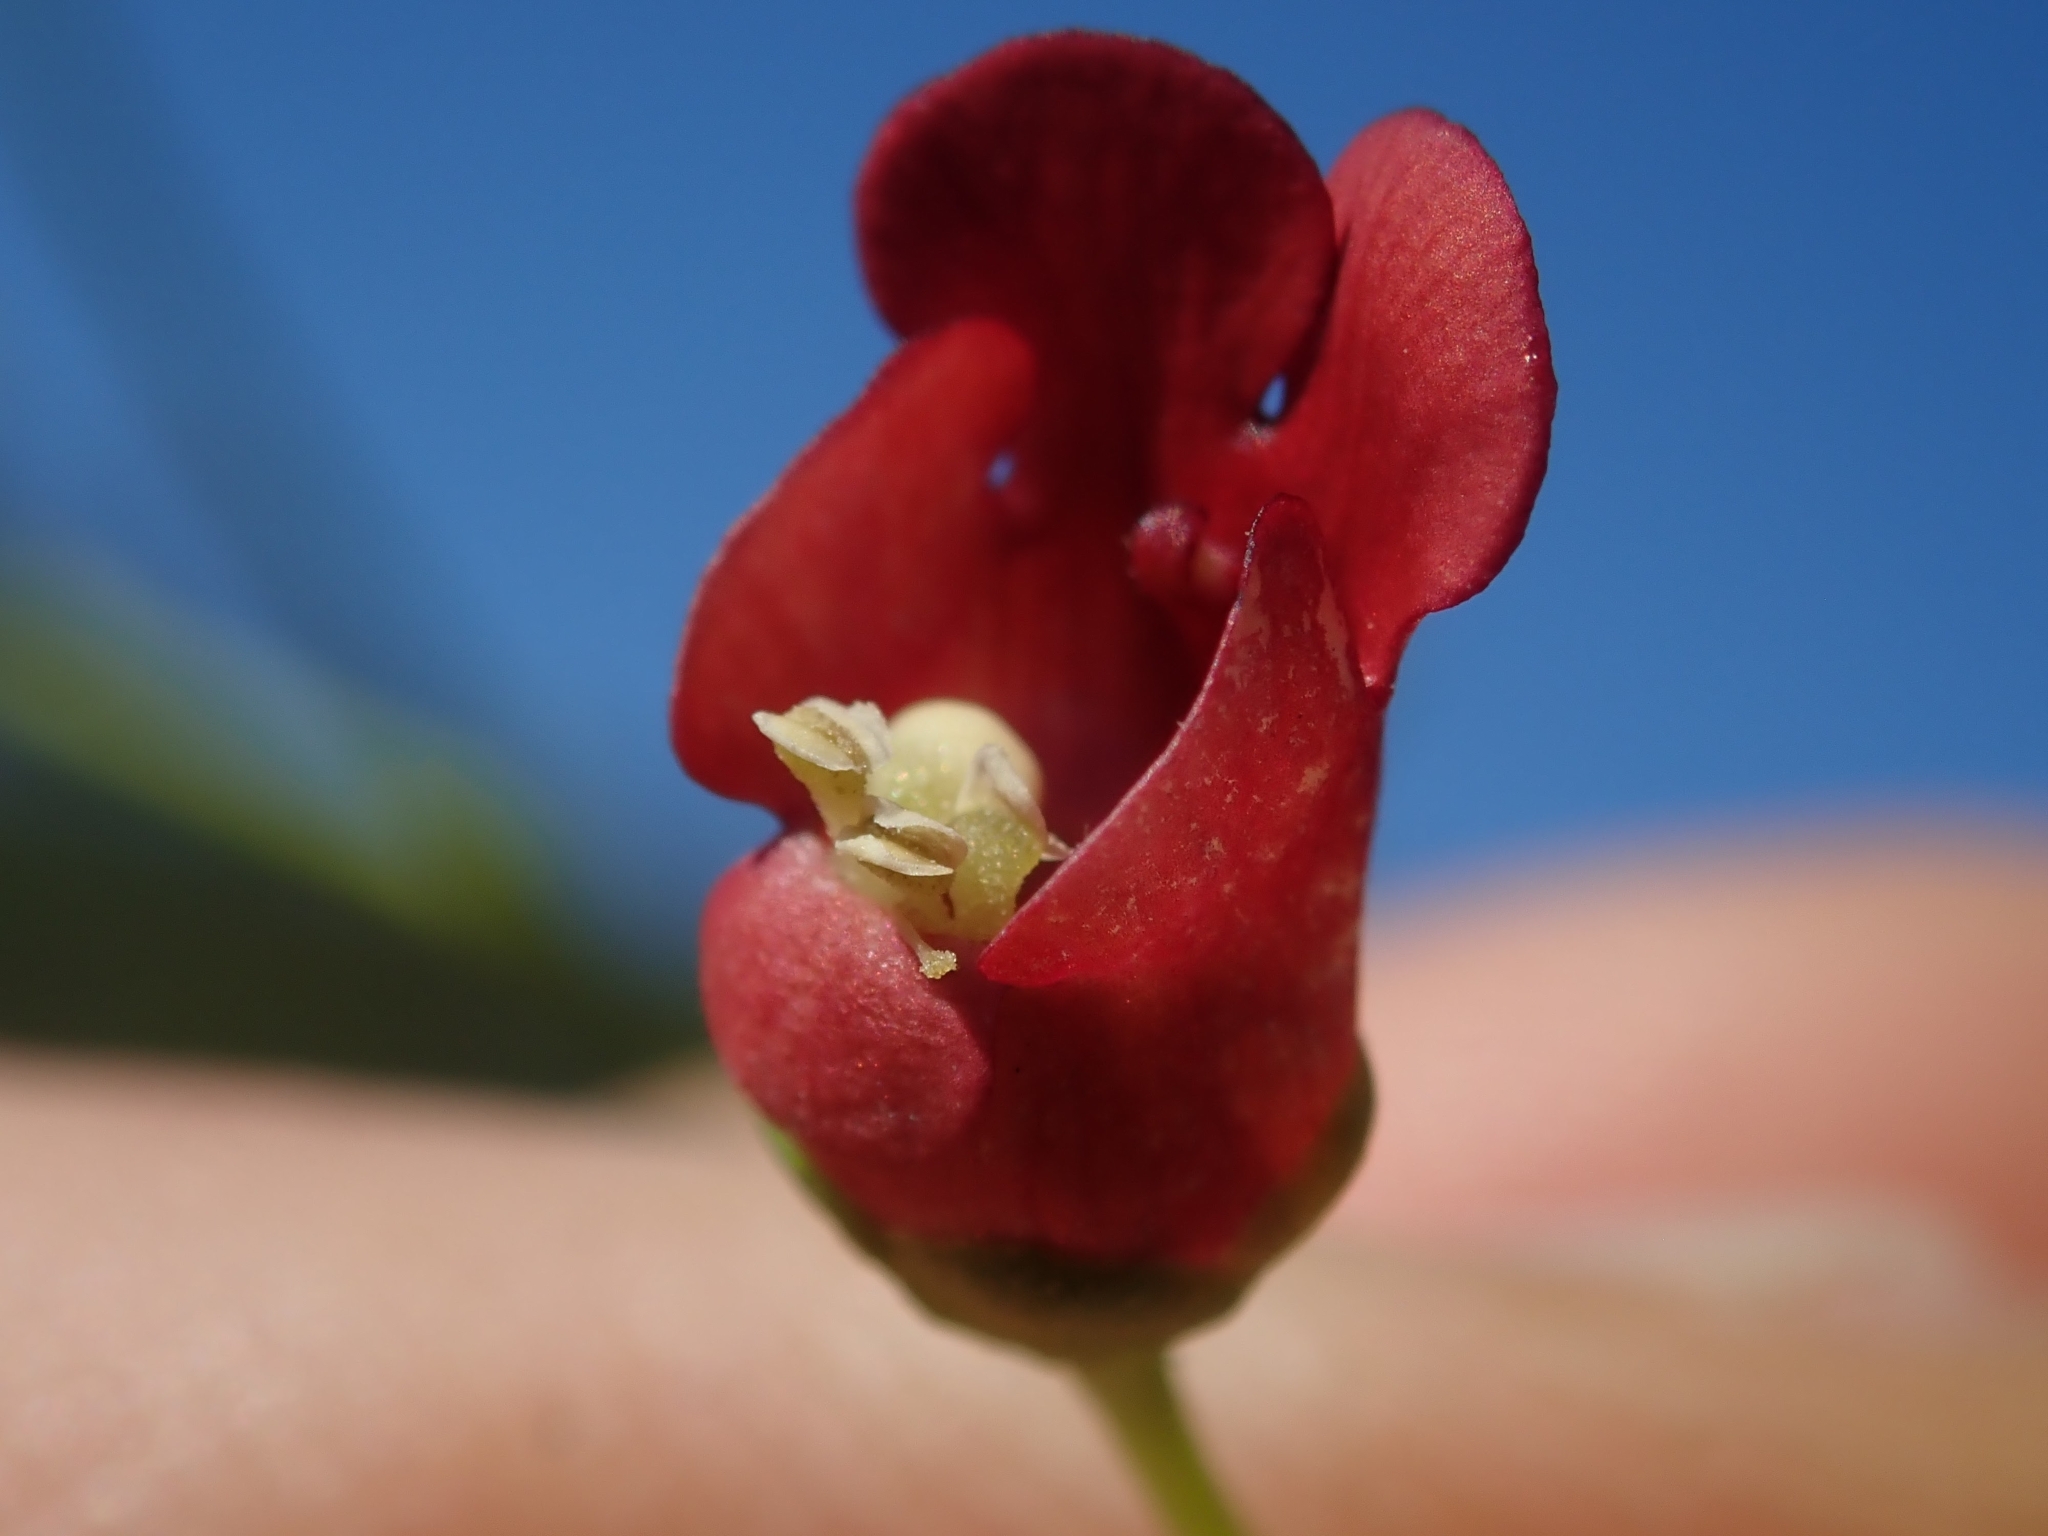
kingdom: Plantae
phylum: Tracheophyta
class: Magnoliopsida
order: Lamiales
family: Scrophulariaceae
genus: Scrophularia
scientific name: Scrophularia californica
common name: California figwort
